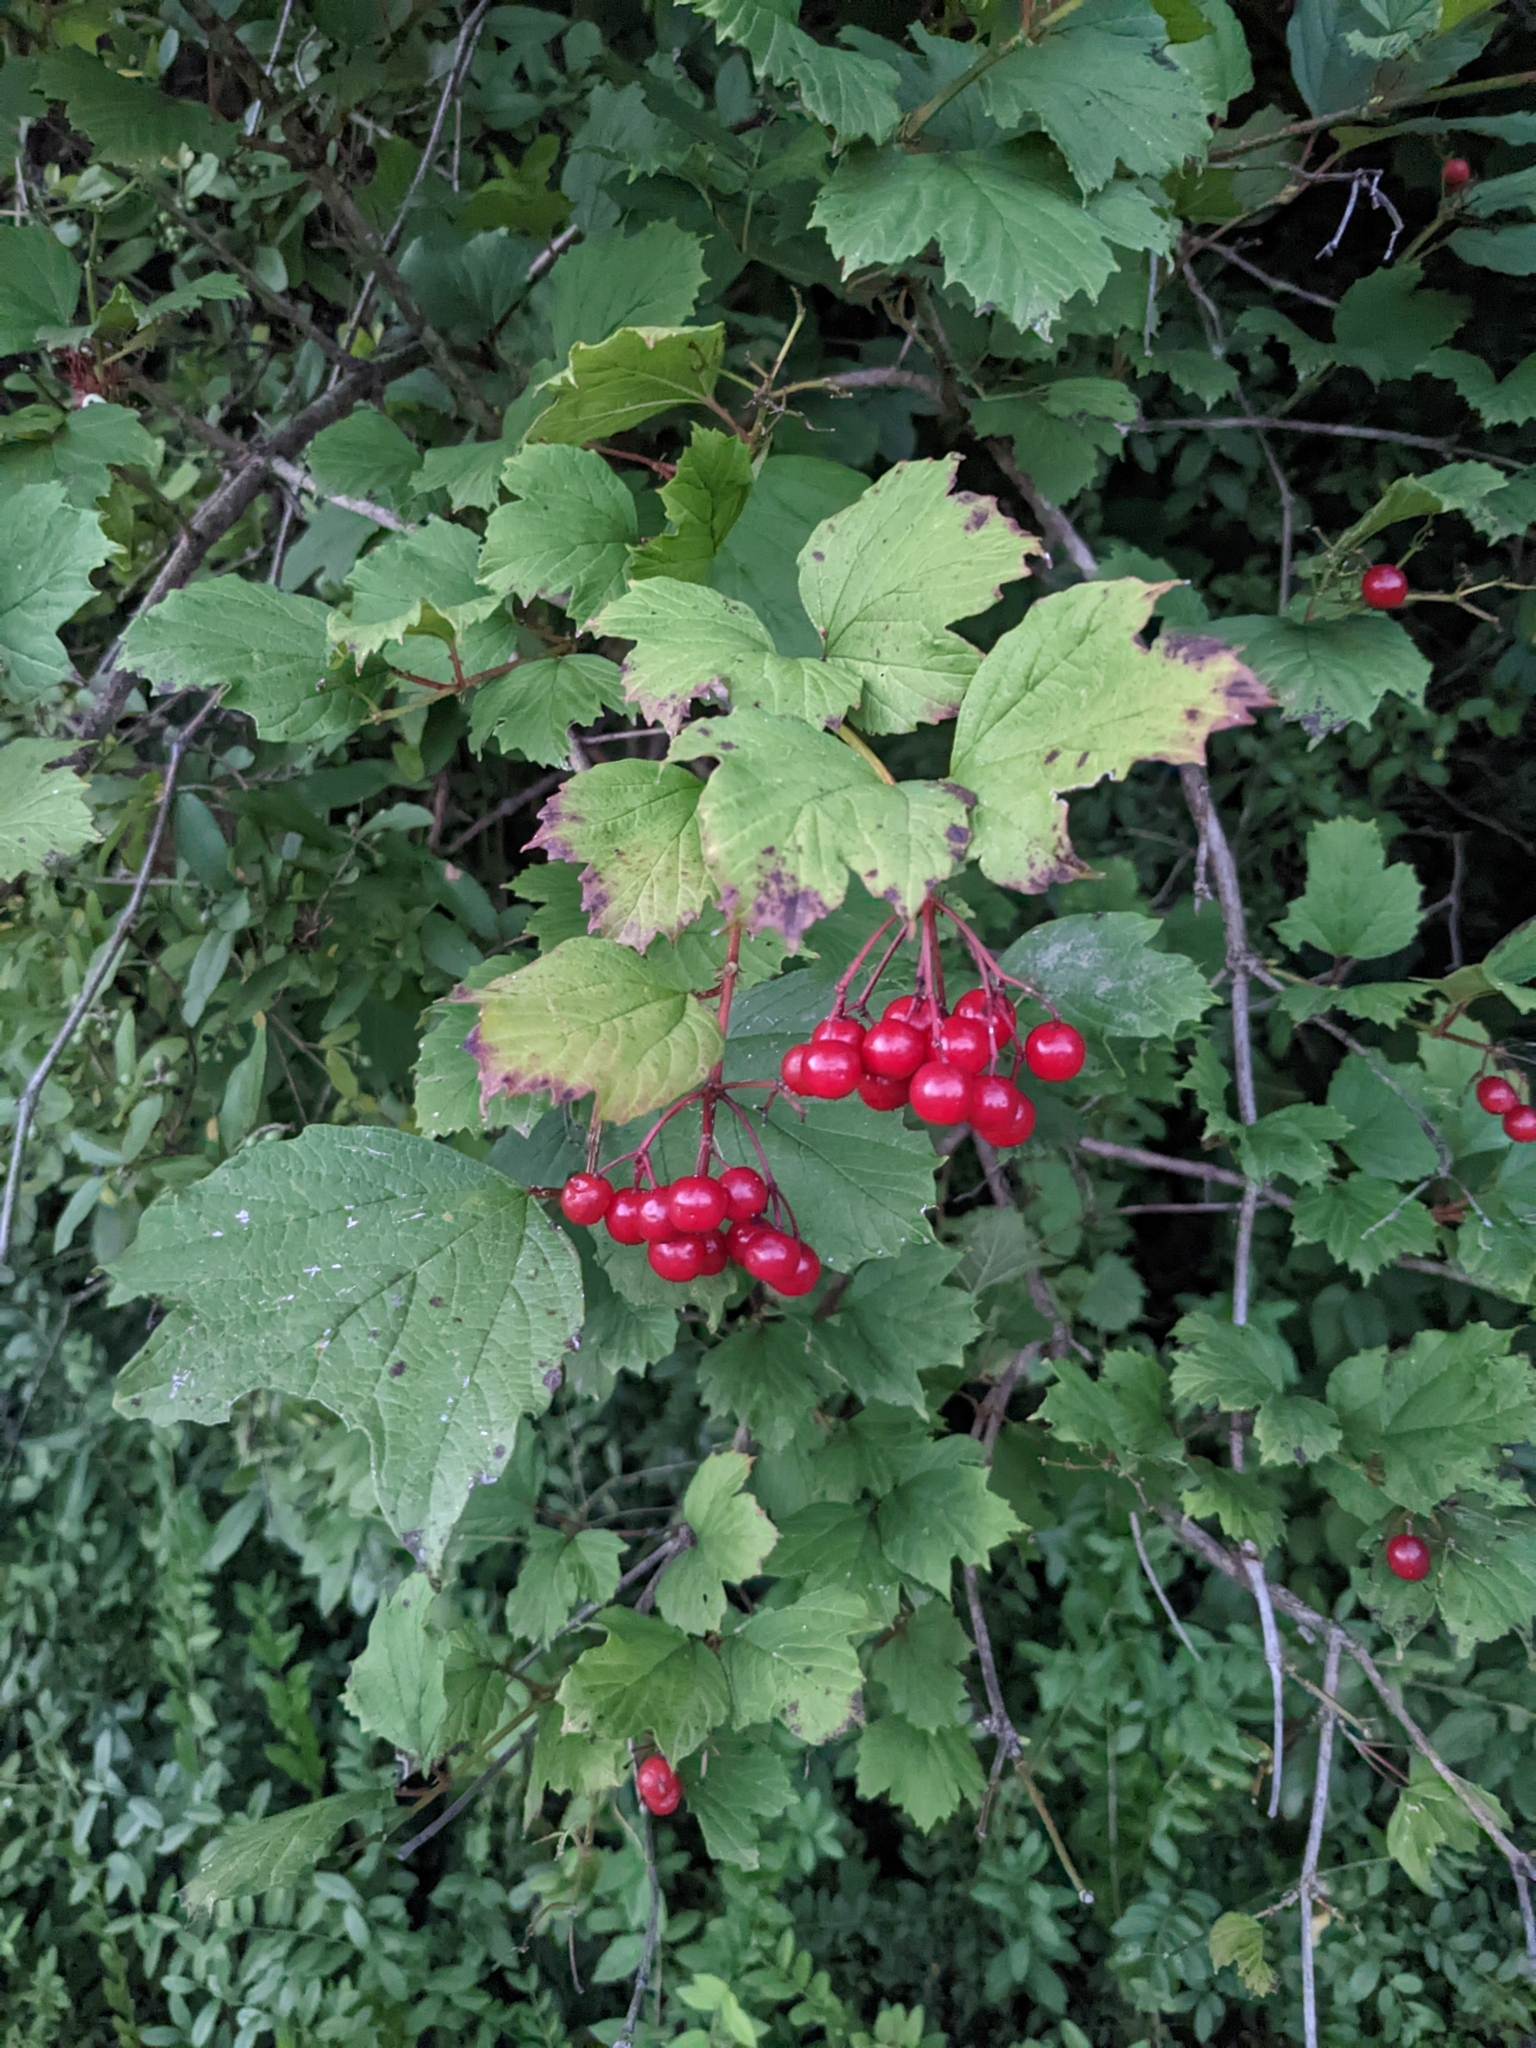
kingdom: Plantae
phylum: Tracheophyta
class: Magnoliopsida
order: Dipsacales
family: Viburnaceae
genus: Viburnum
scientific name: Viburnum opulus
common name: Guelder-rose
